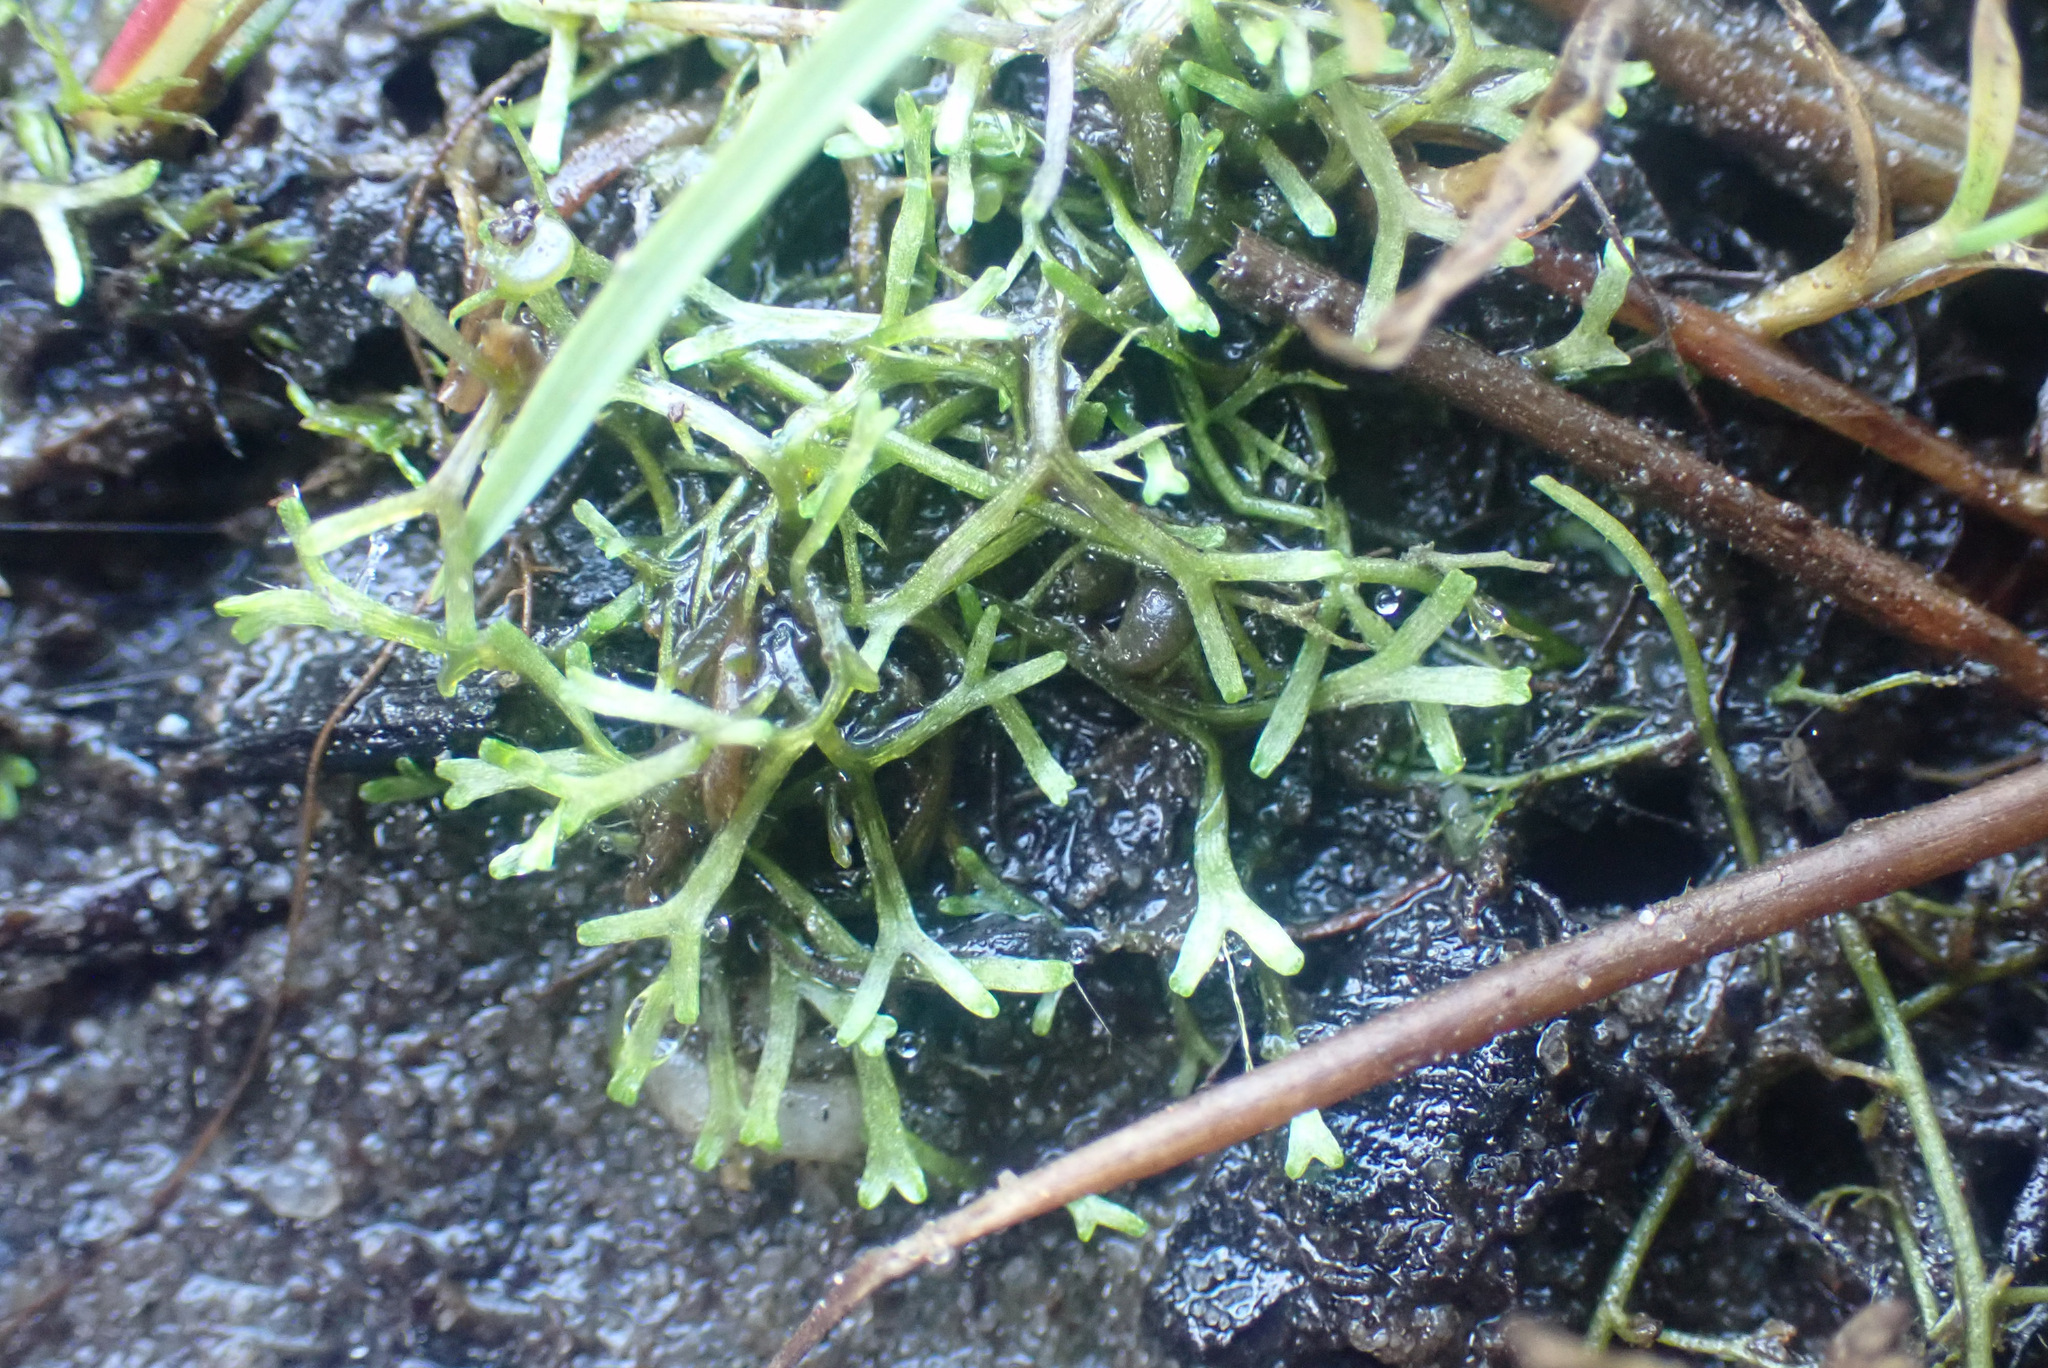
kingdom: Plantae
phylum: Marchantiophyta
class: Marchantiopsida
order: Marchantiales
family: Ricciaceae
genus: Riccia
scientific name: Riccia fluitans
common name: Floating crystalwort
